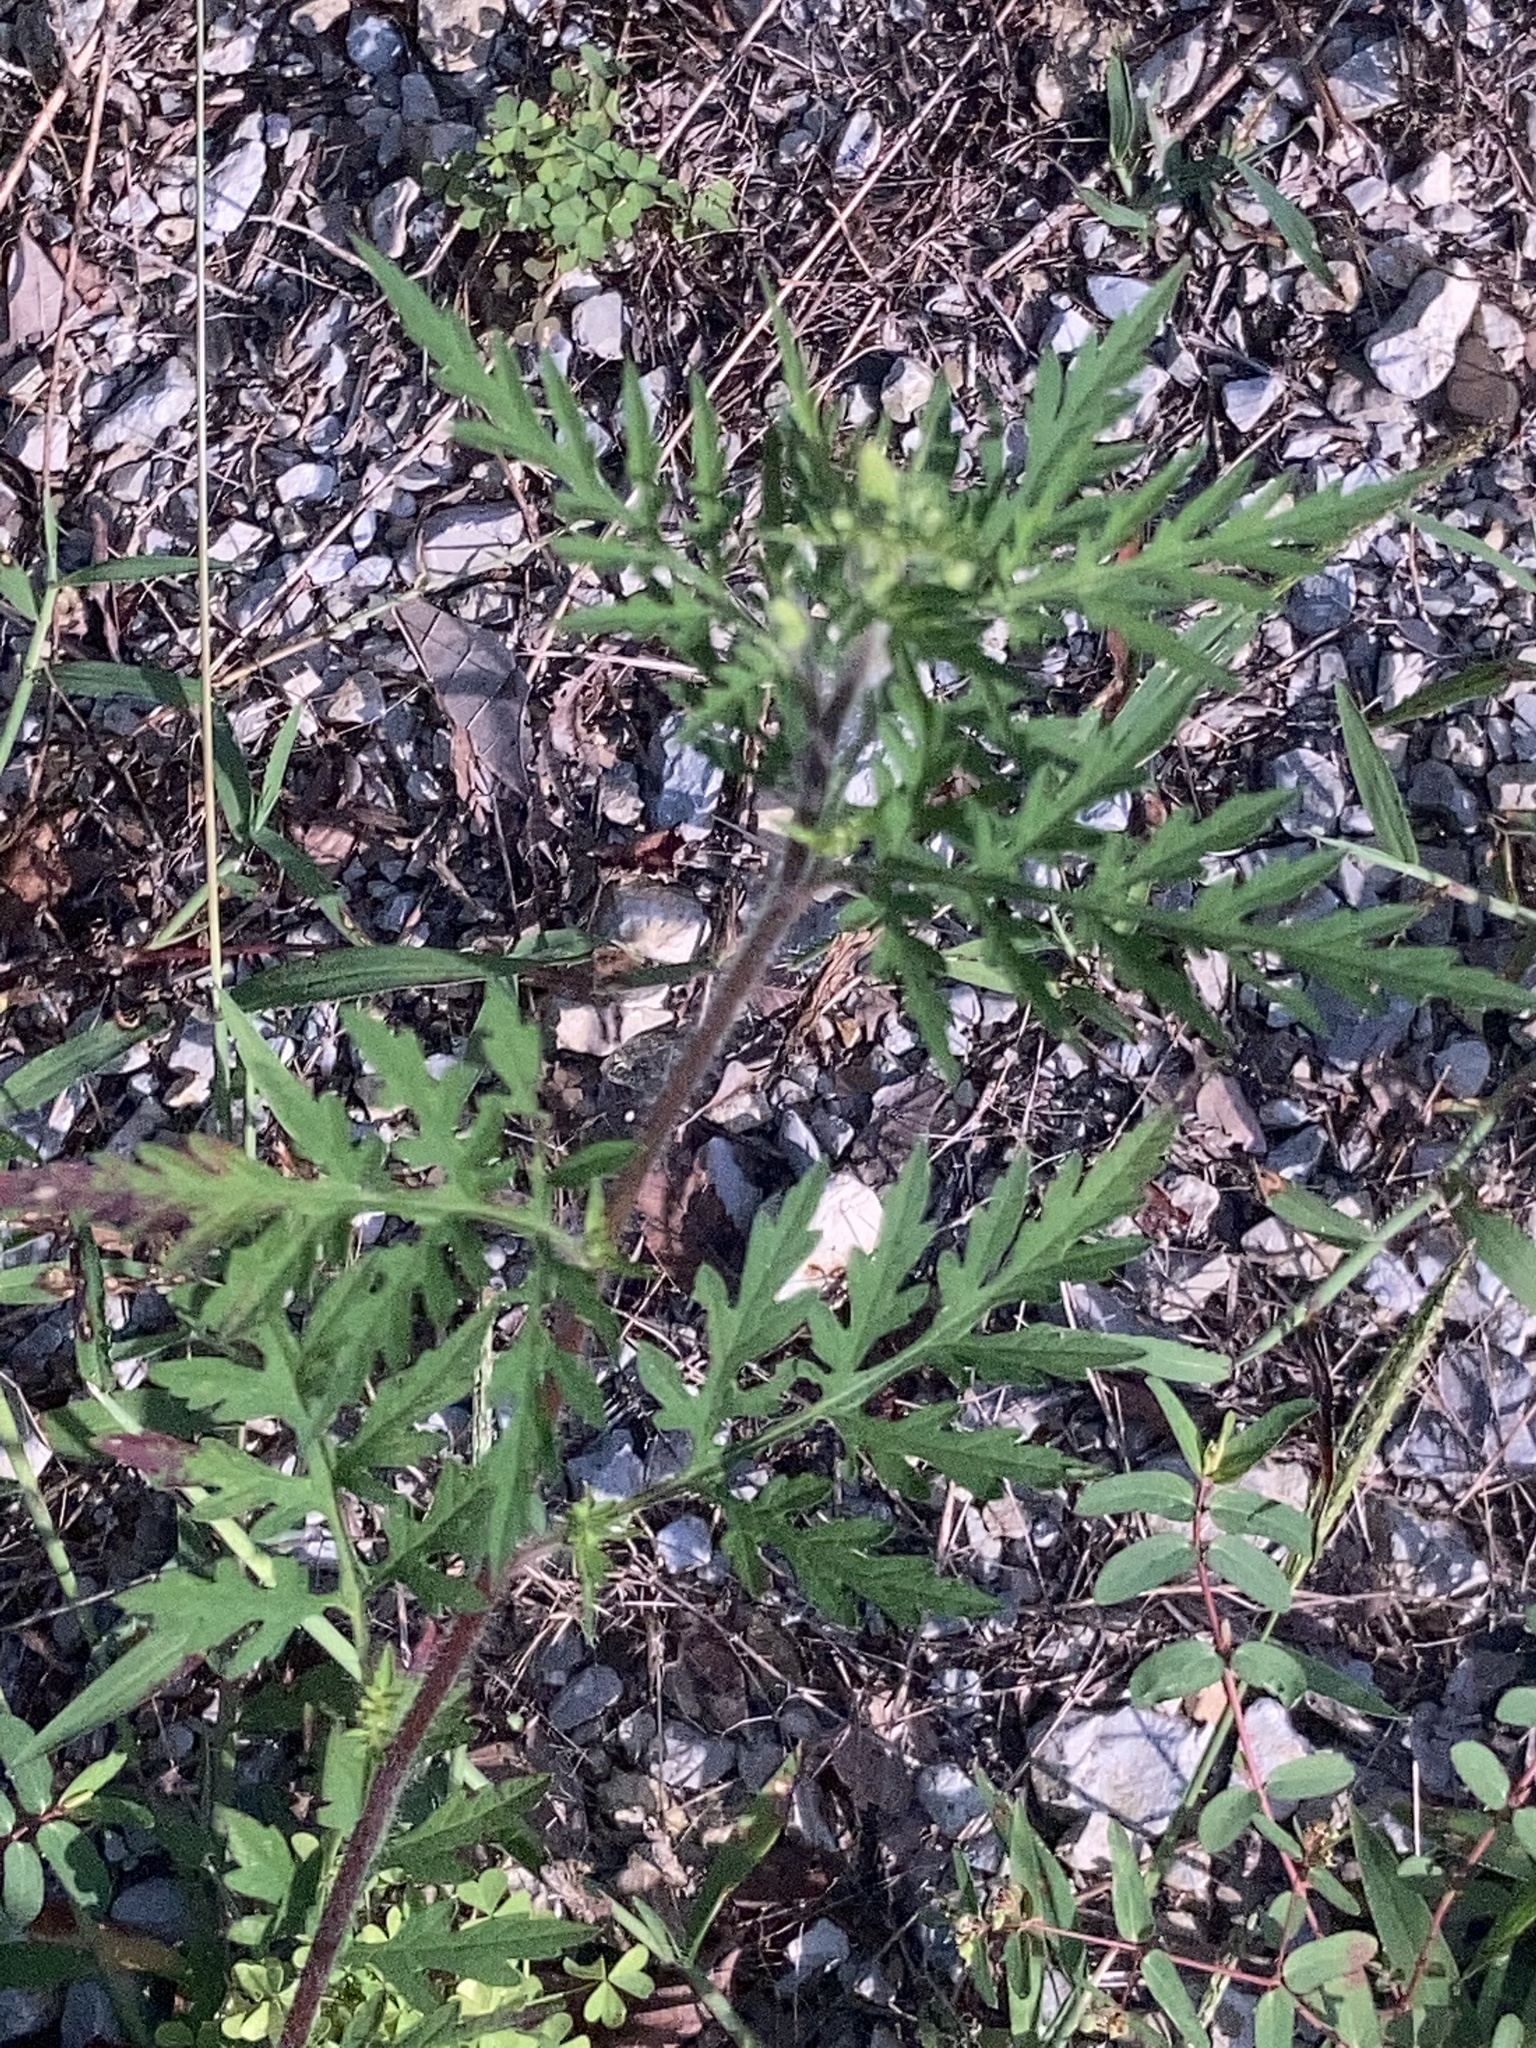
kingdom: Plantae
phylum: Tracheophyta
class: Magnoliopsida
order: Asterales
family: Asteraceae
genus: Ambrosia
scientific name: Ambrosia artemisiifolia
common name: Annual ragweed
